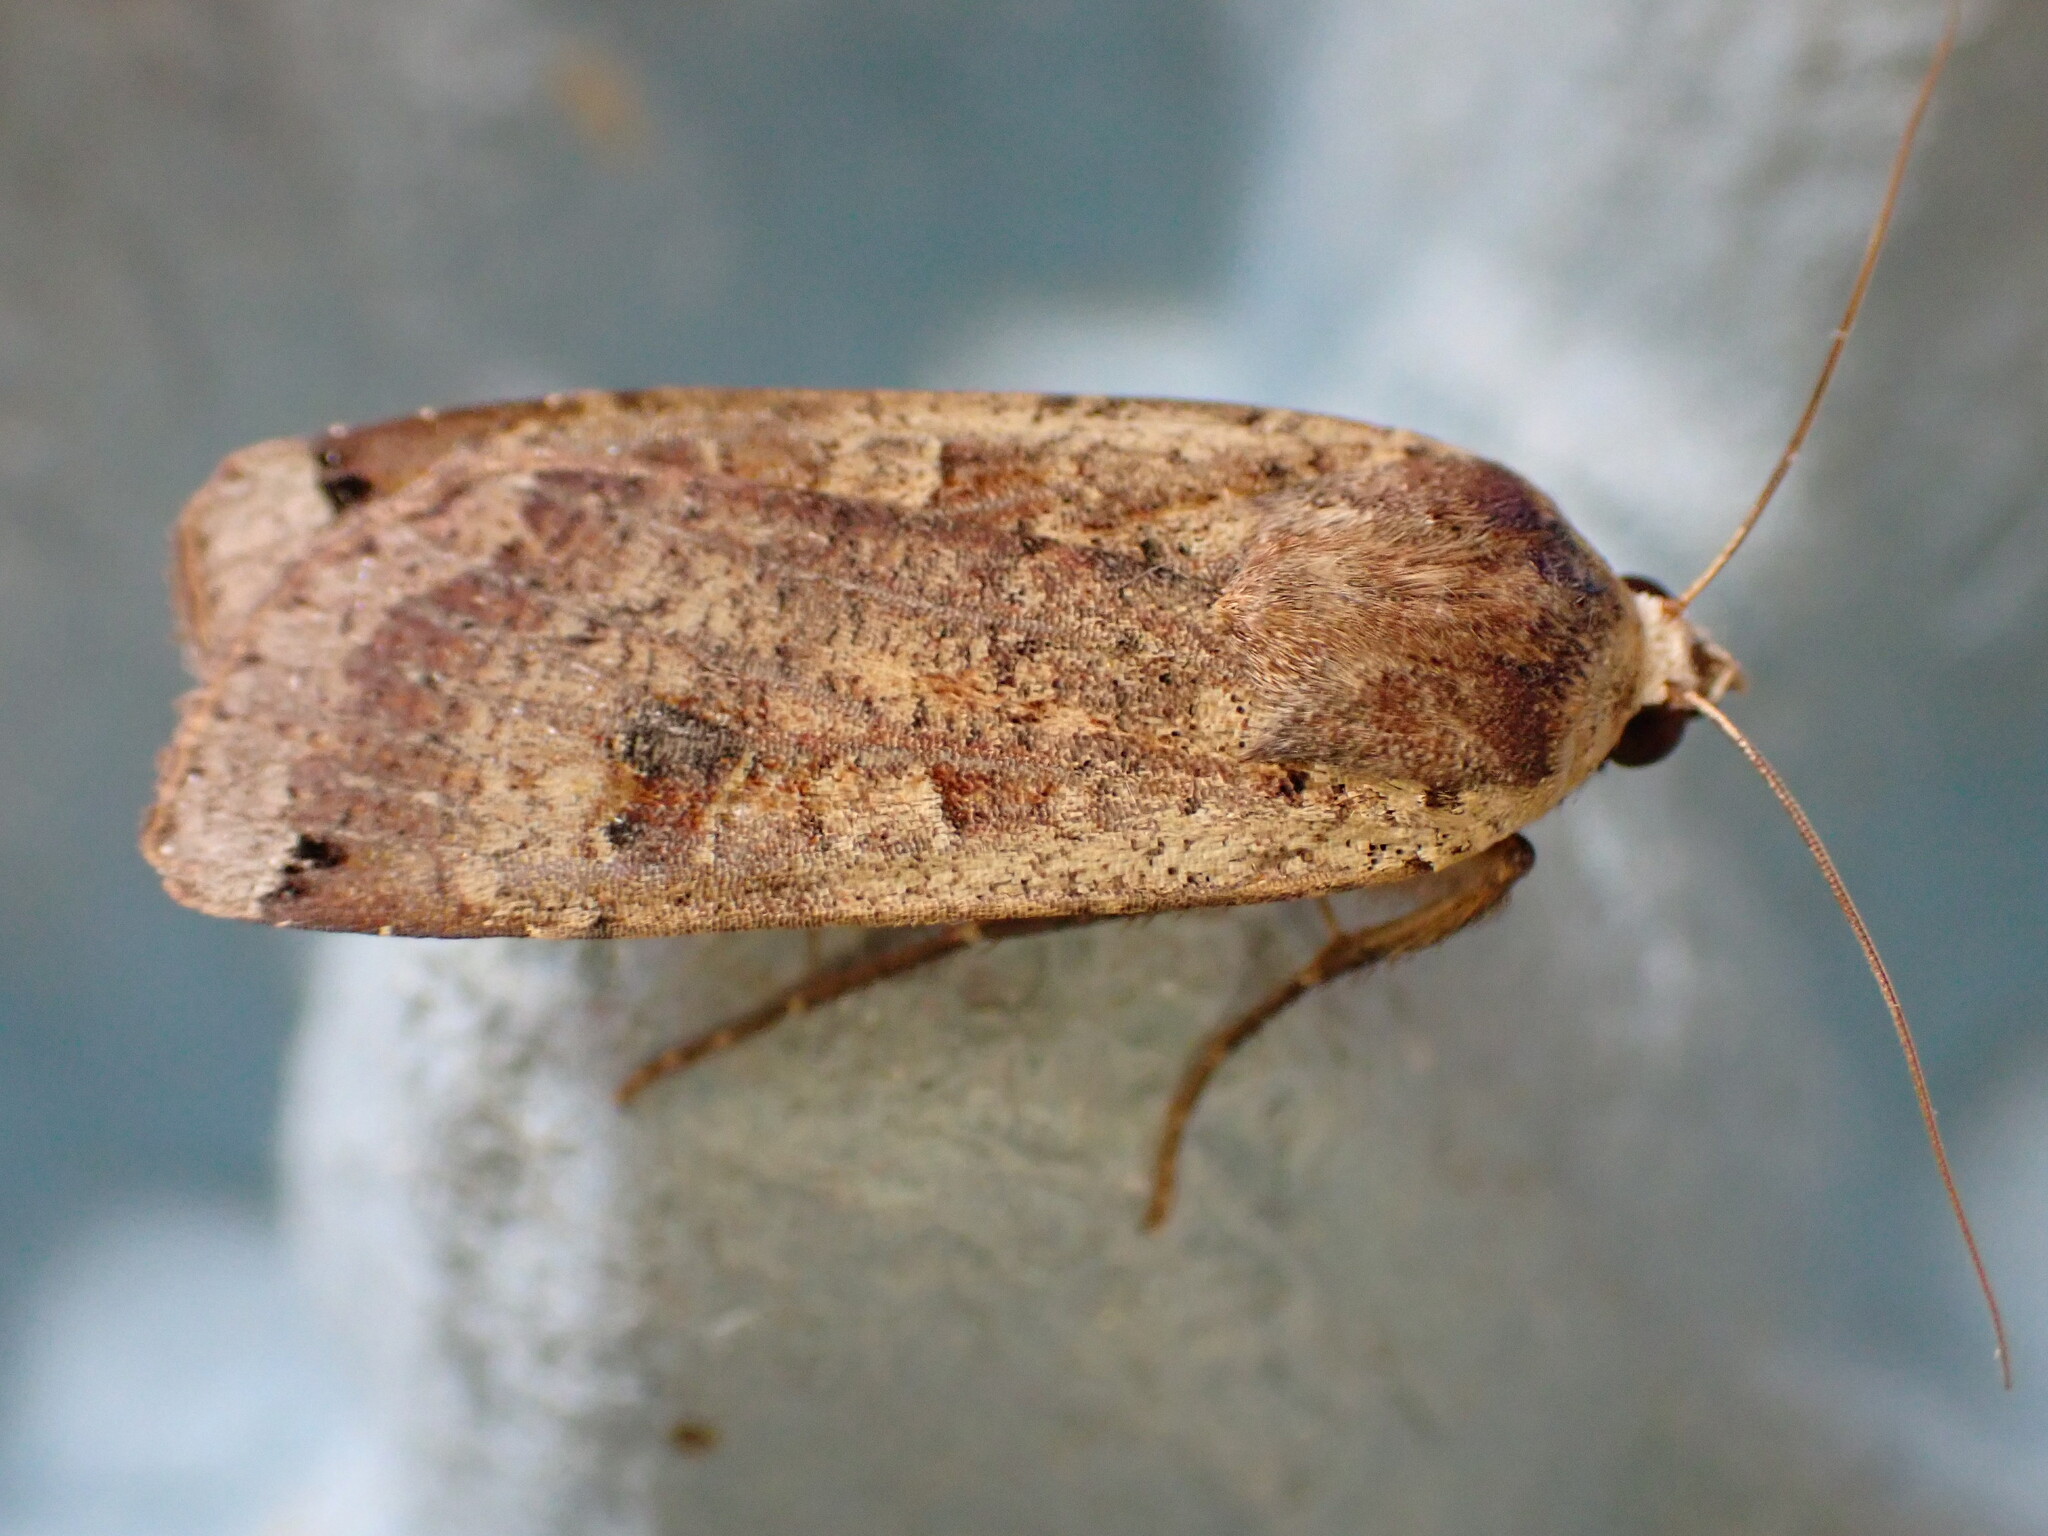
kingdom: Animalia
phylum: Arthropoda
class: Insecta
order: Lepidoptera
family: Noctuidae
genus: Noctua
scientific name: Noctua pronuba
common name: Large yellow underwing
